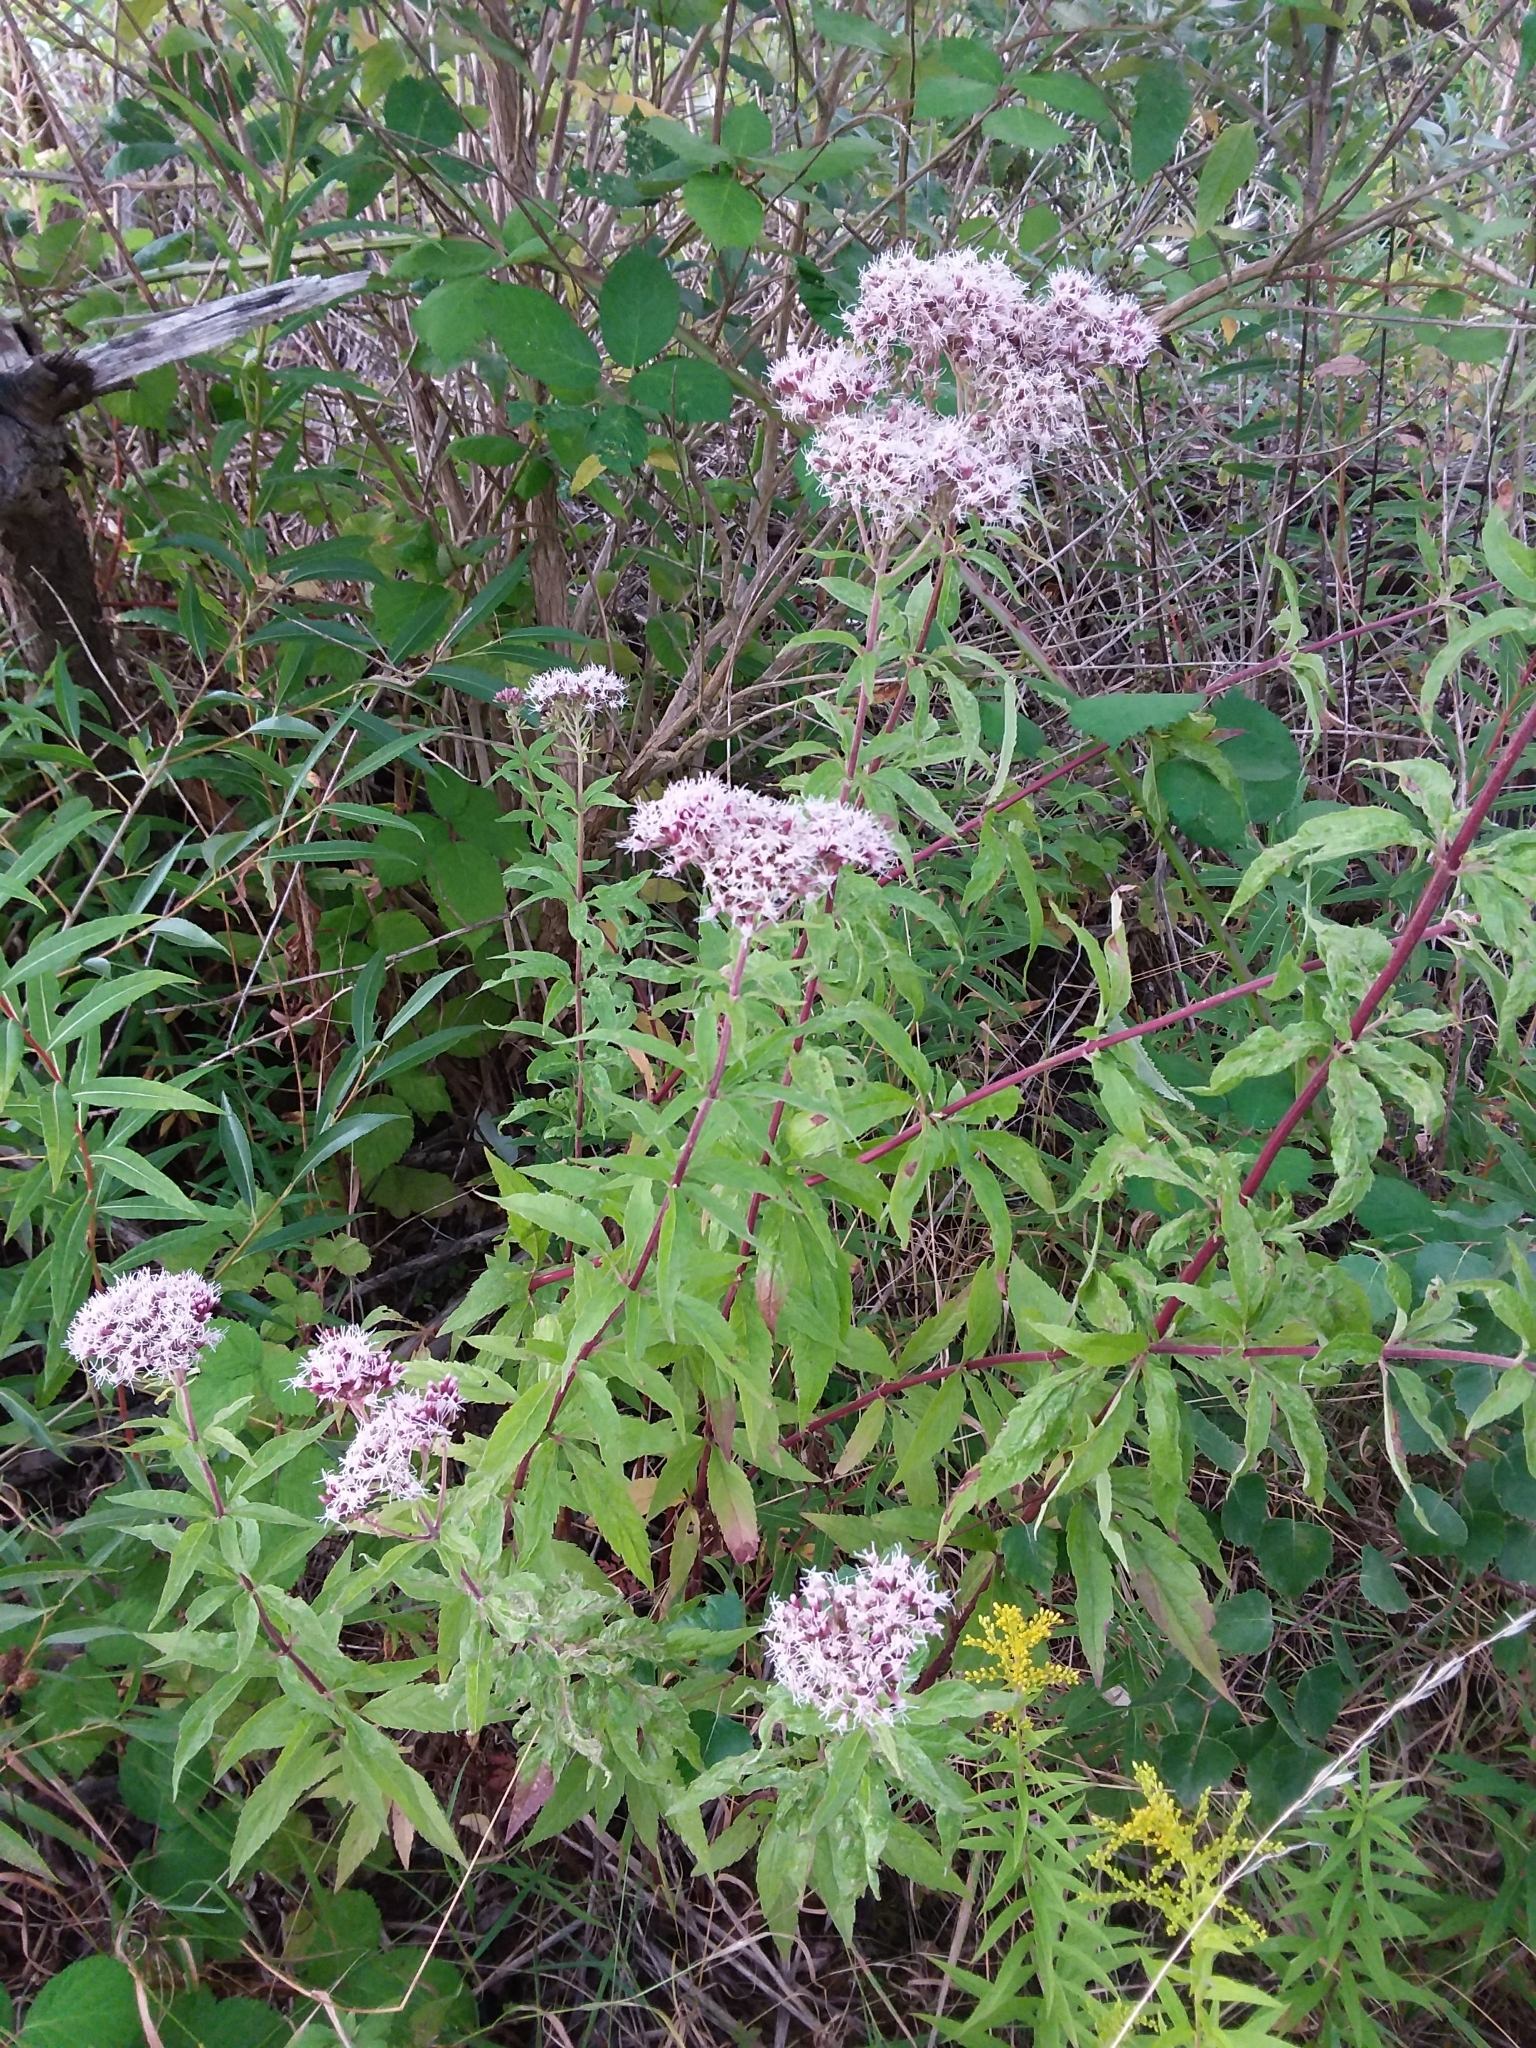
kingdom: Plantae
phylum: Tracheophyta
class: Magnoliopsida
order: Asterales
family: Asteraceae
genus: Eupatorium
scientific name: Eupatorium cannabinum
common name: Hemp-agrimony
